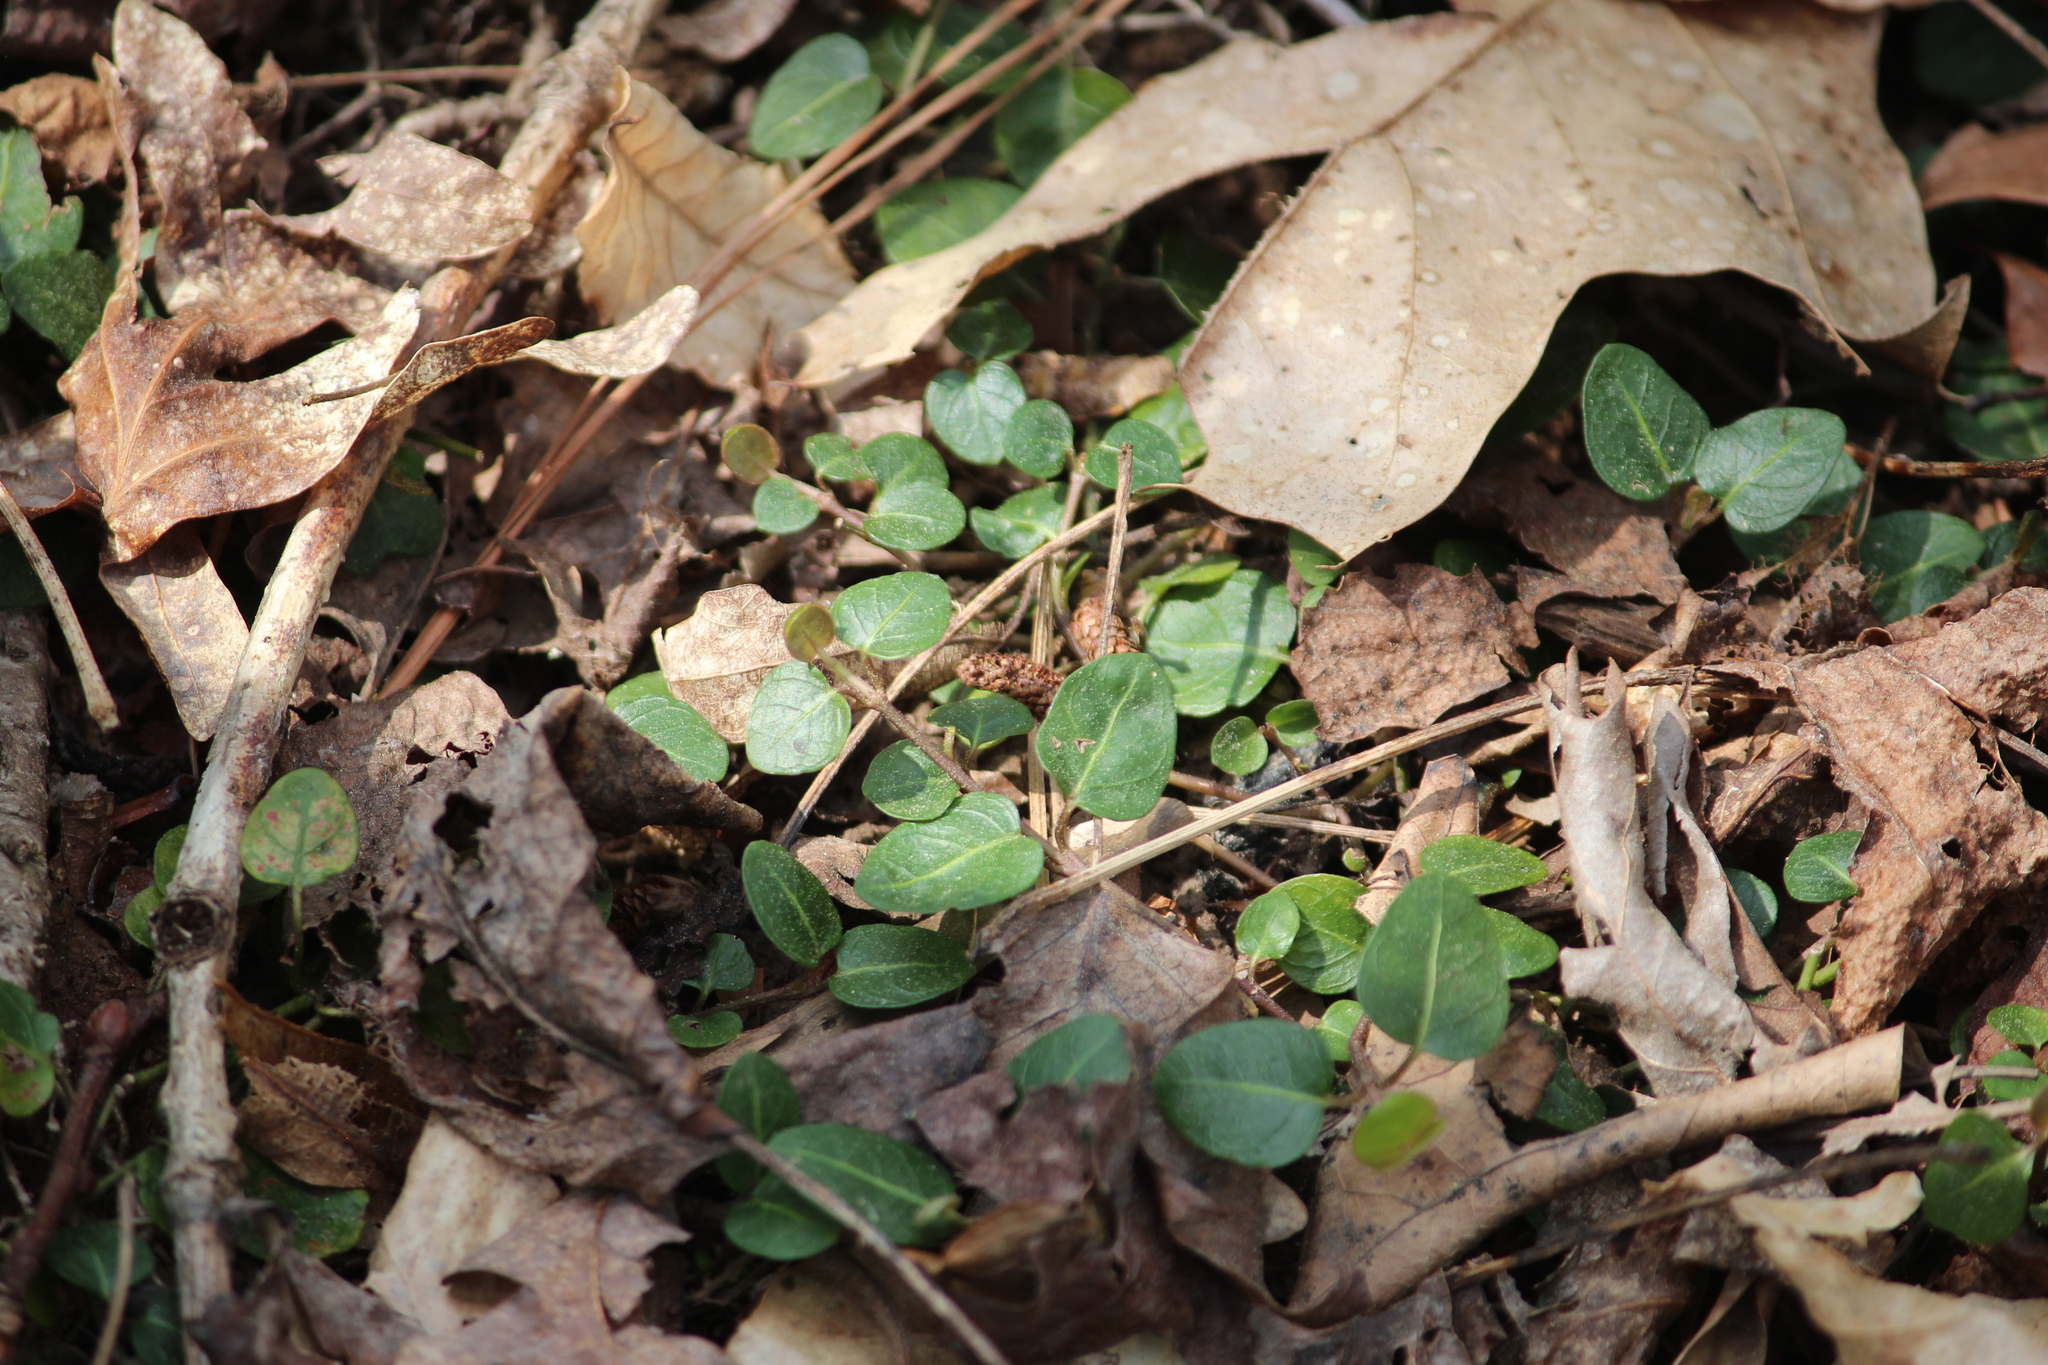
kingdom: Plantae
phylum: Tracheophyta
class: Magnoliopsida
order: Gentianales
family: Rubiaceae
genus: Mitchella
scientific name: Mitchella repens
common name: Partridge-berry
